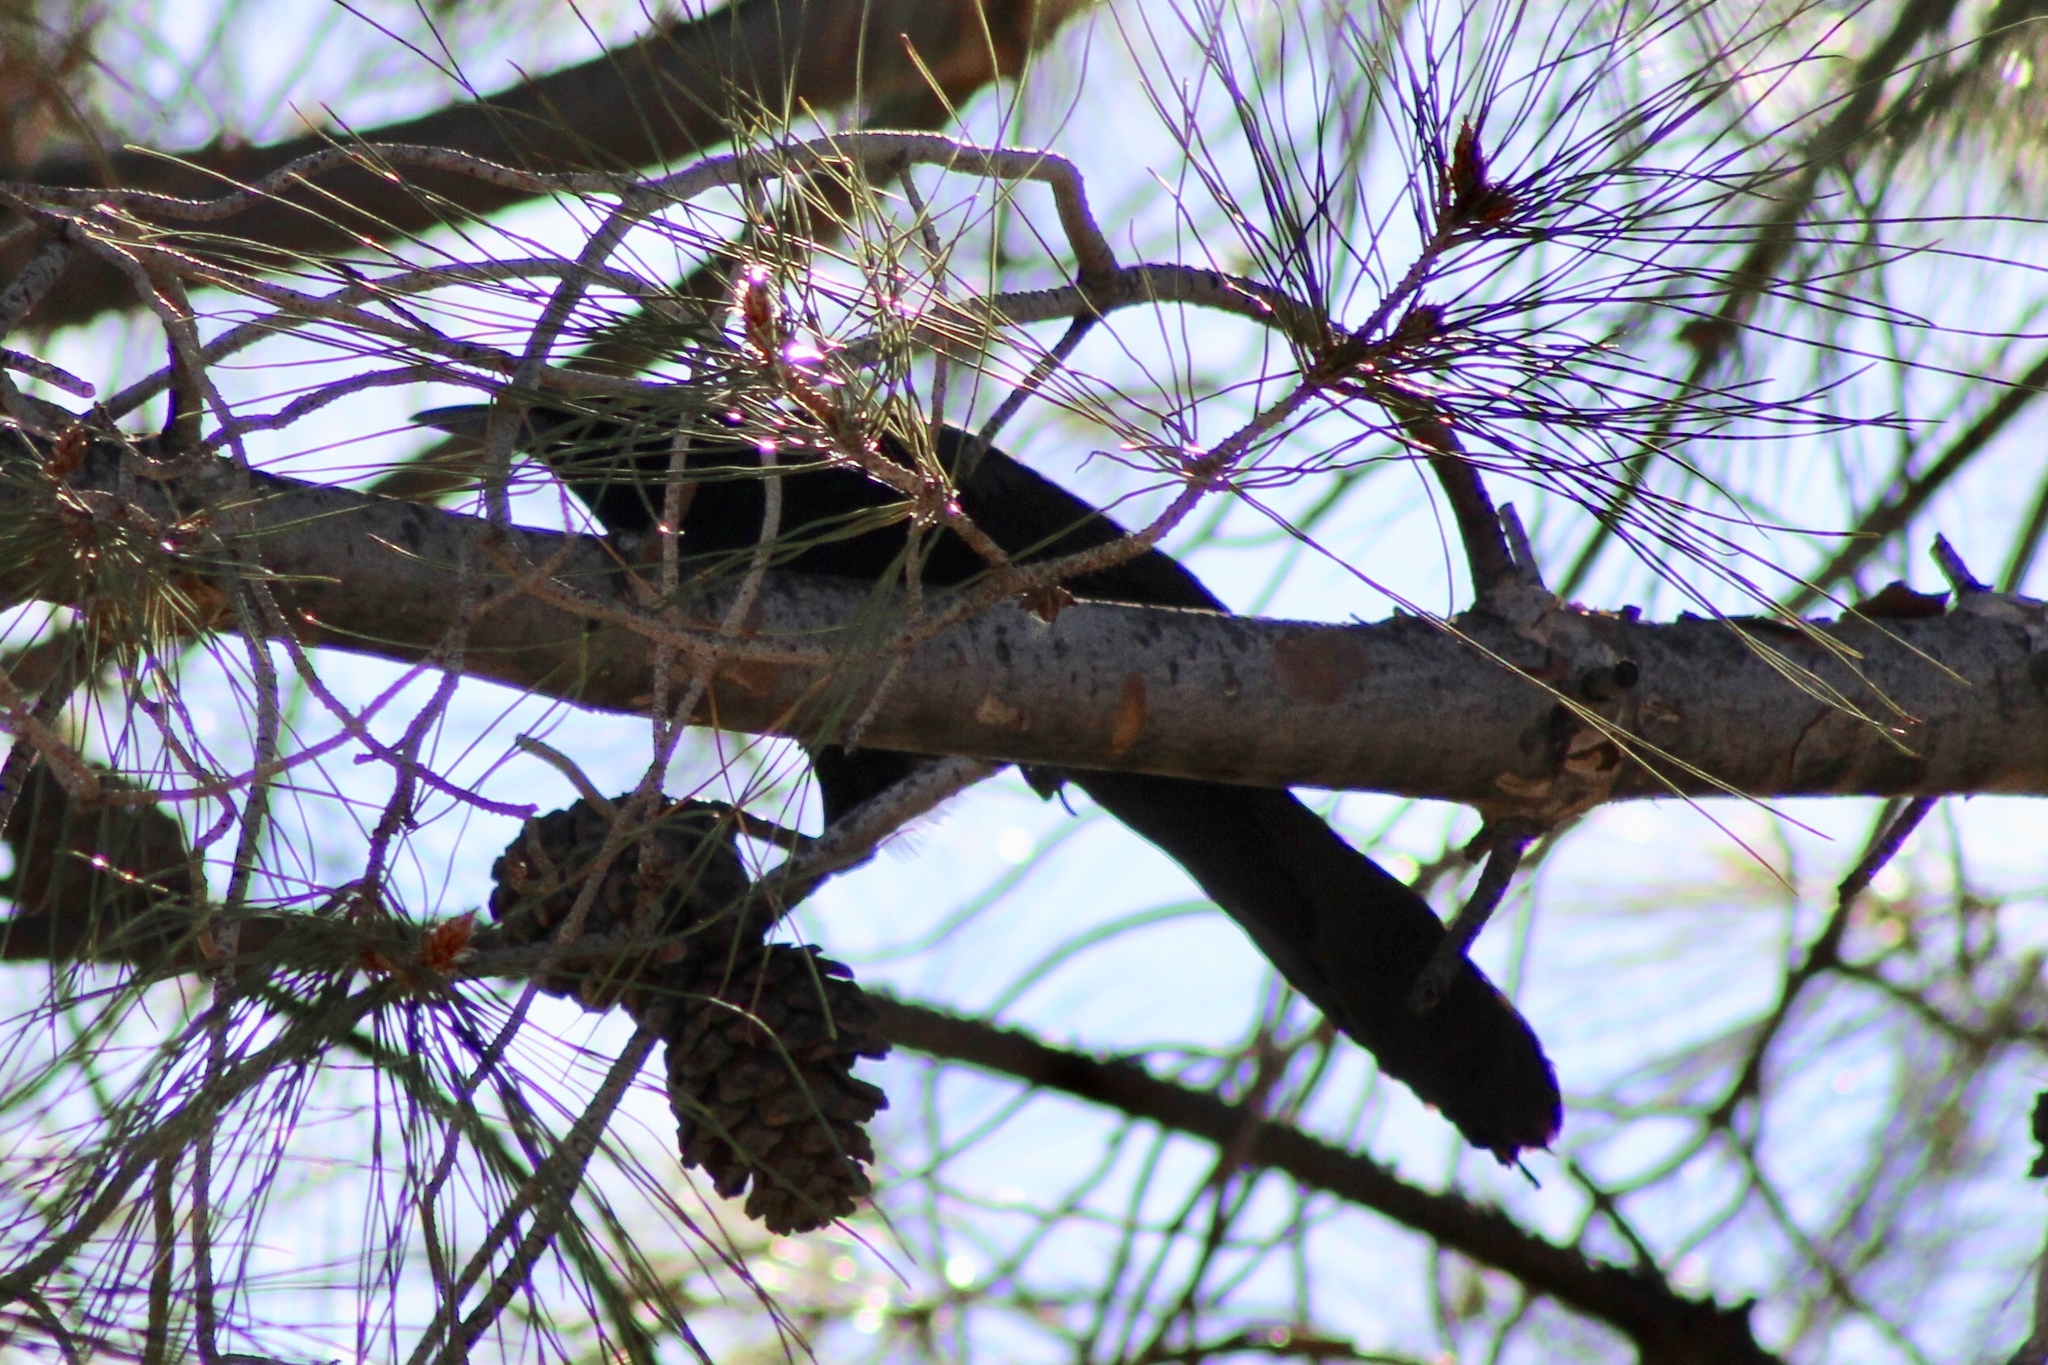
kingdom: Animalia
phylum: Chordata
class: Aves
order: Passeriformes
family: Icteridae
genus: Quiscalus
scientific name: Quiscalus mexicanus
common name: Great-tailed grackle
